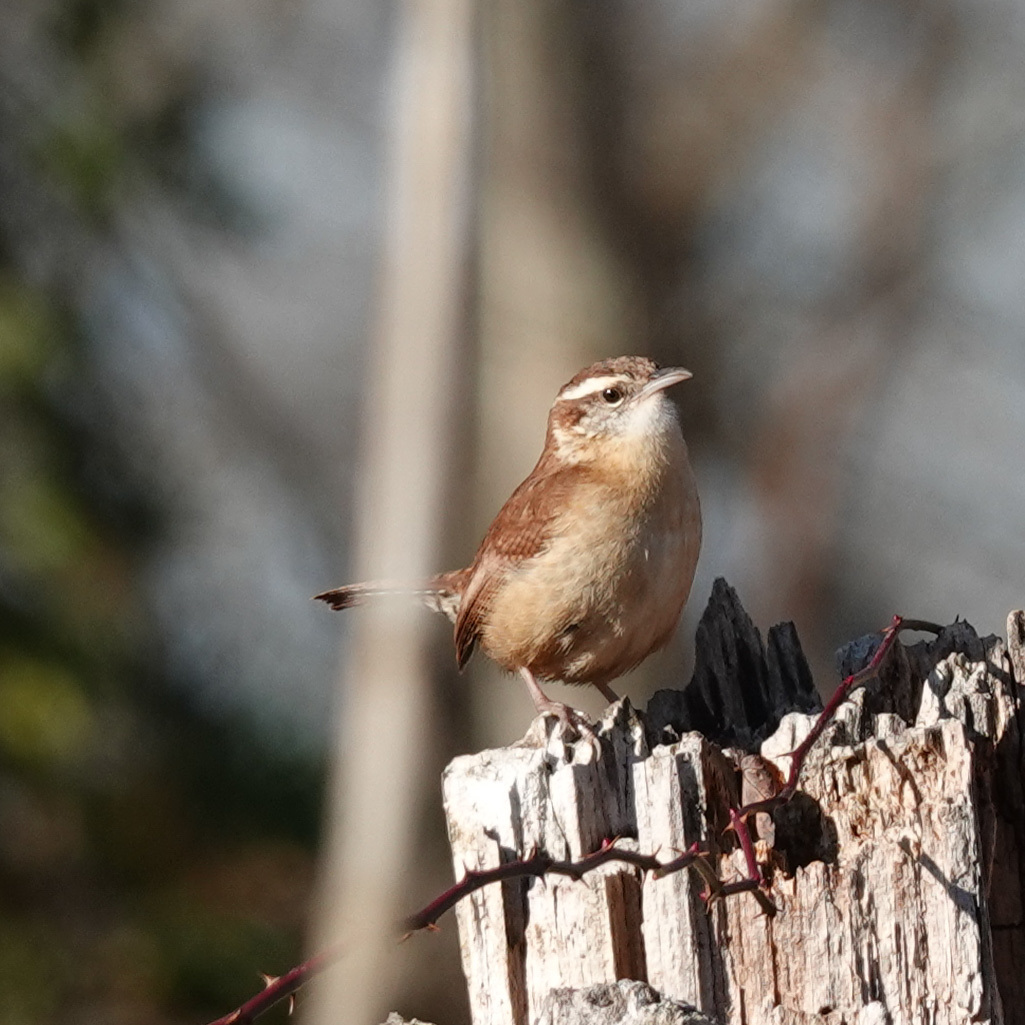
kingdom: Animalia
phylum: Chordata
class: Aves
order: Passeriformes
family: Troglodytidae
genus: Thryothorus
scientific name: Thryothorus ludovicianus
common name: Carolina wren
